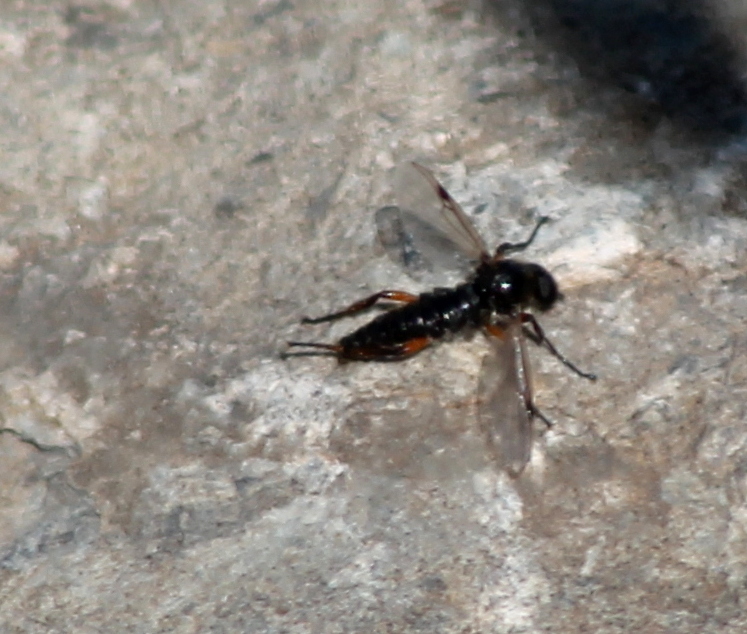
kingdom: Animalia
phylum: Arthropoda
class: Insecta
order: Diptera
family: Bibionidae
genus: Bibio
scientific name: Bibio
